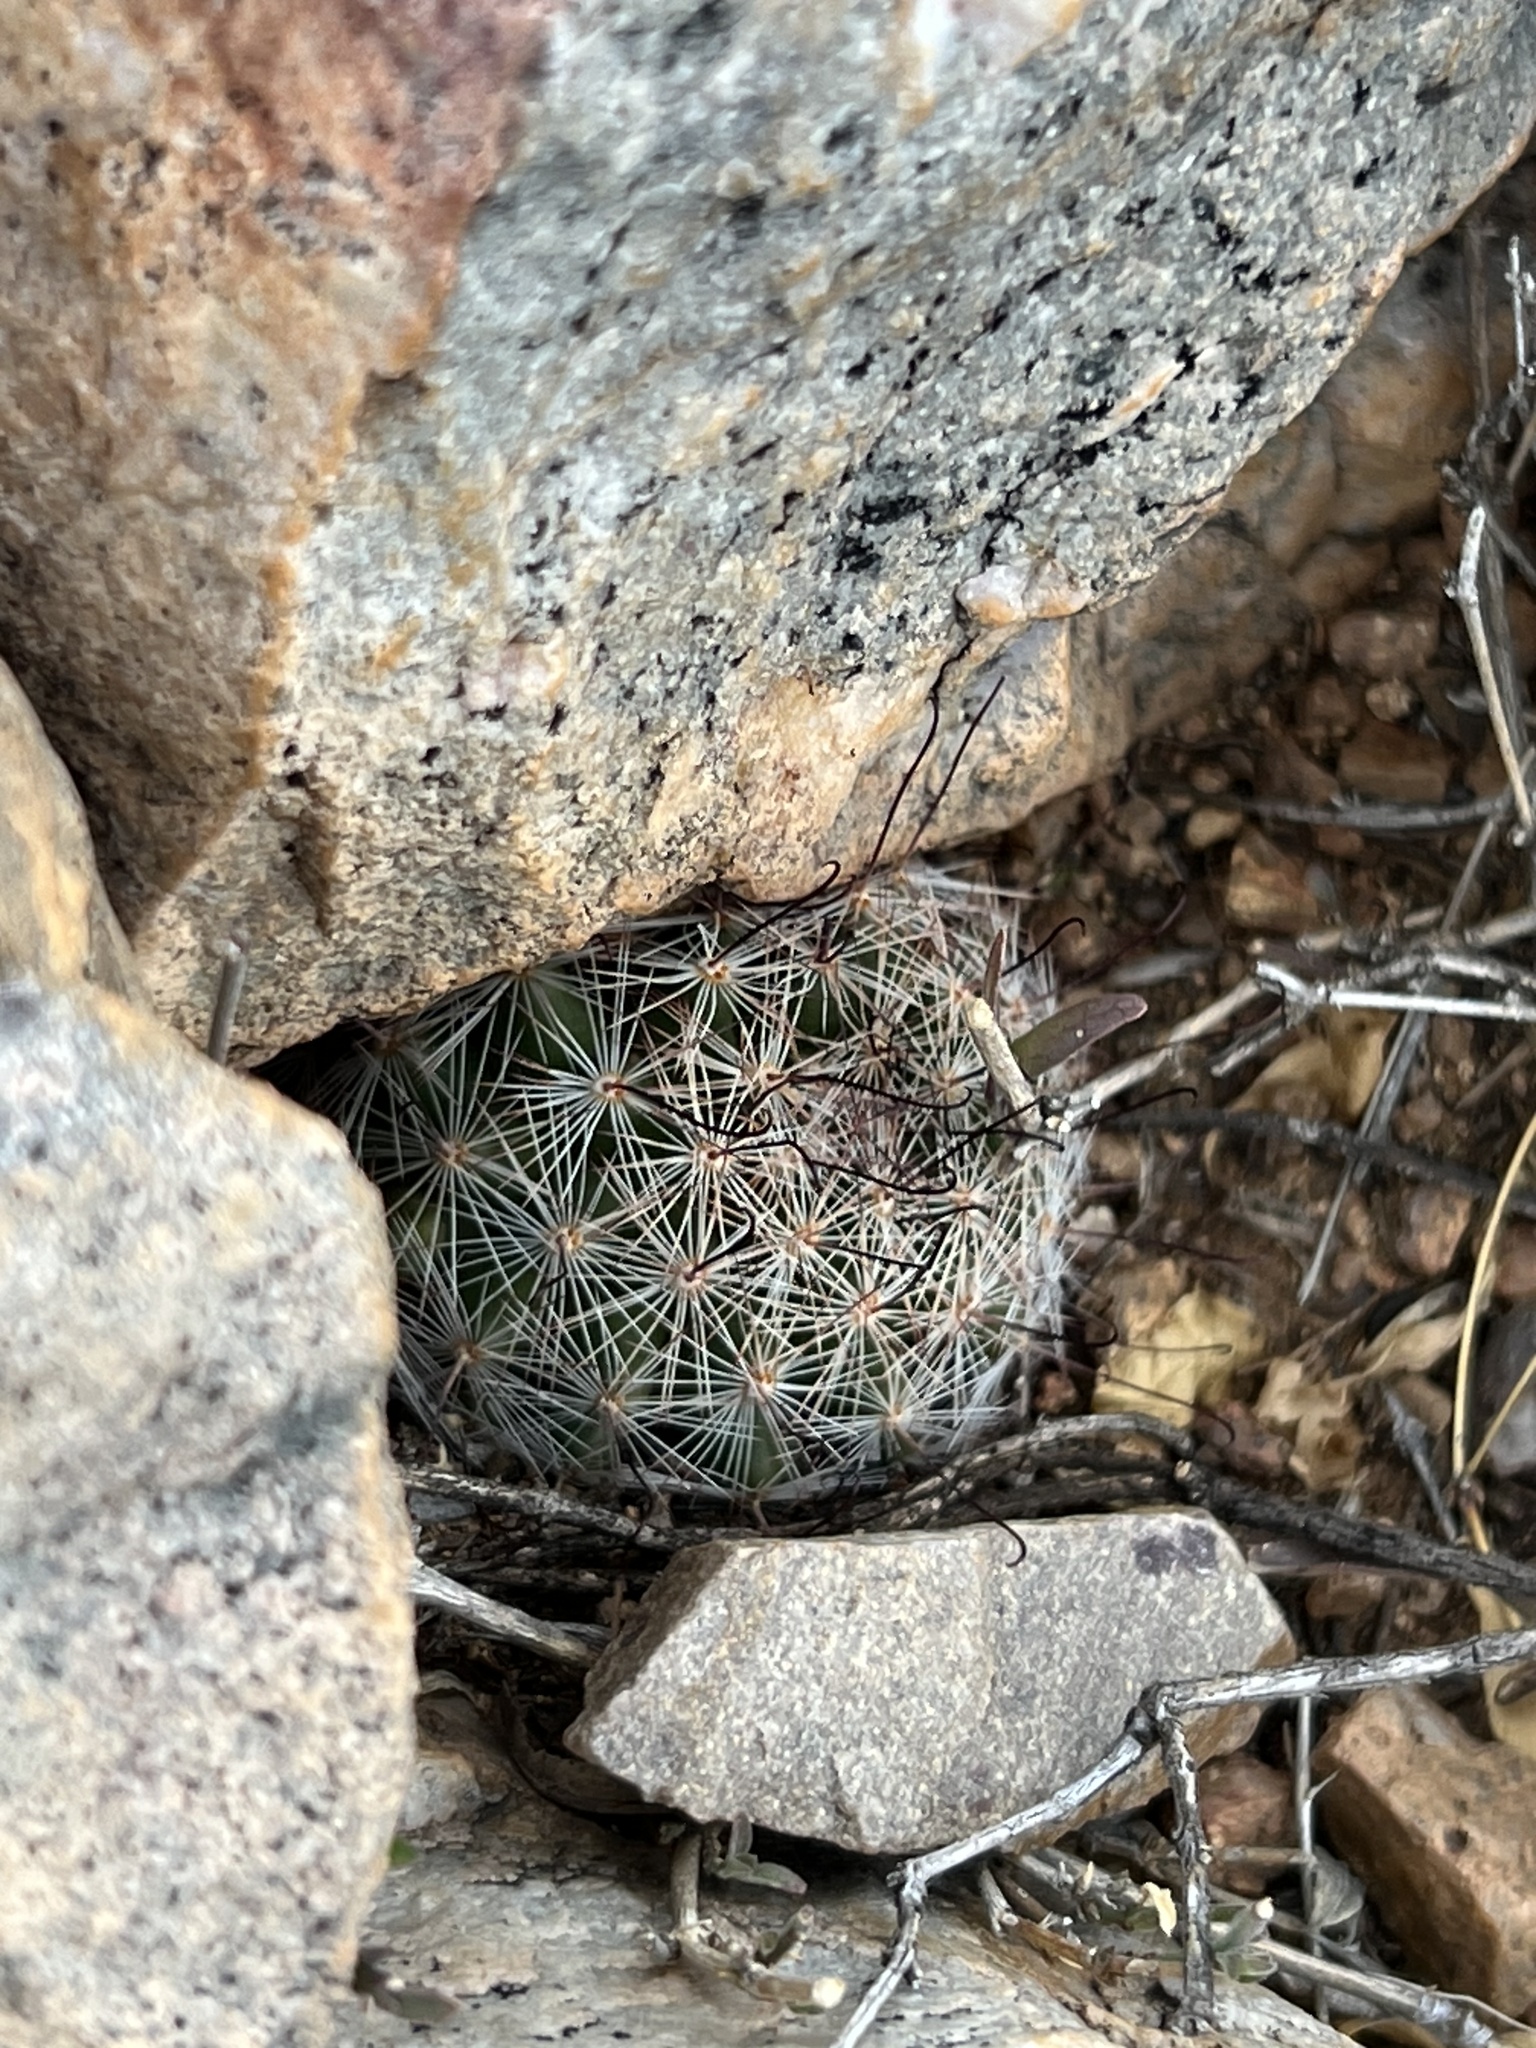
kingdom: Plantae
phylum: Tracheophyta
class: Magnoliopsida
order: Caryophyllales
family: Cactaceae
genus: Cochemiea
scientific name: Cochemiea wrightii
